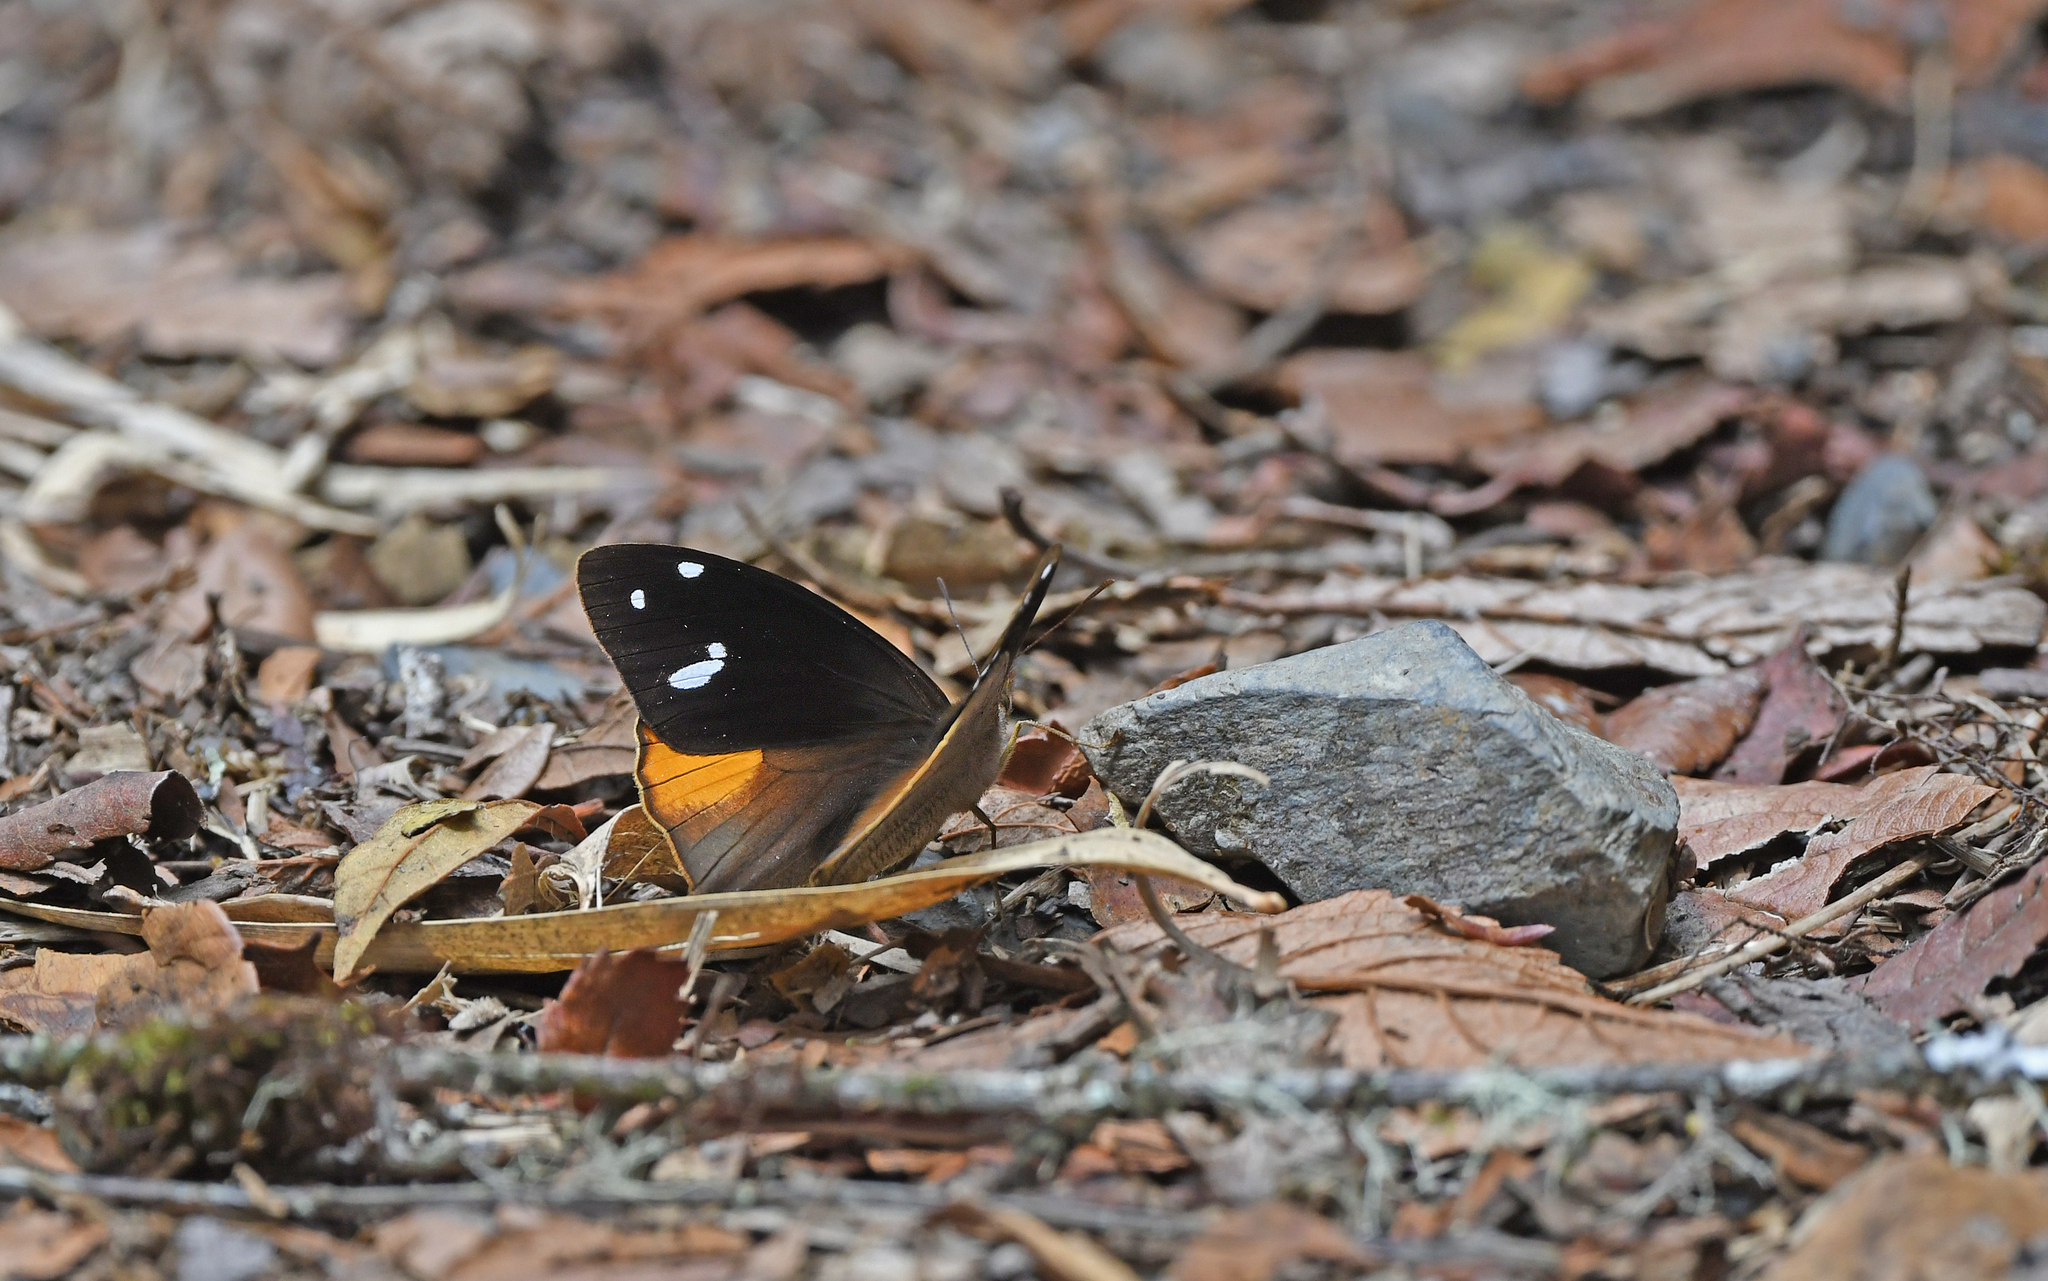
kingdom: Animalia
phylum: Arthropoda
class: Insecta
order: Lepidoptera
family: Nymphalidae
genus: Corades
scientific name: Corades iduna
